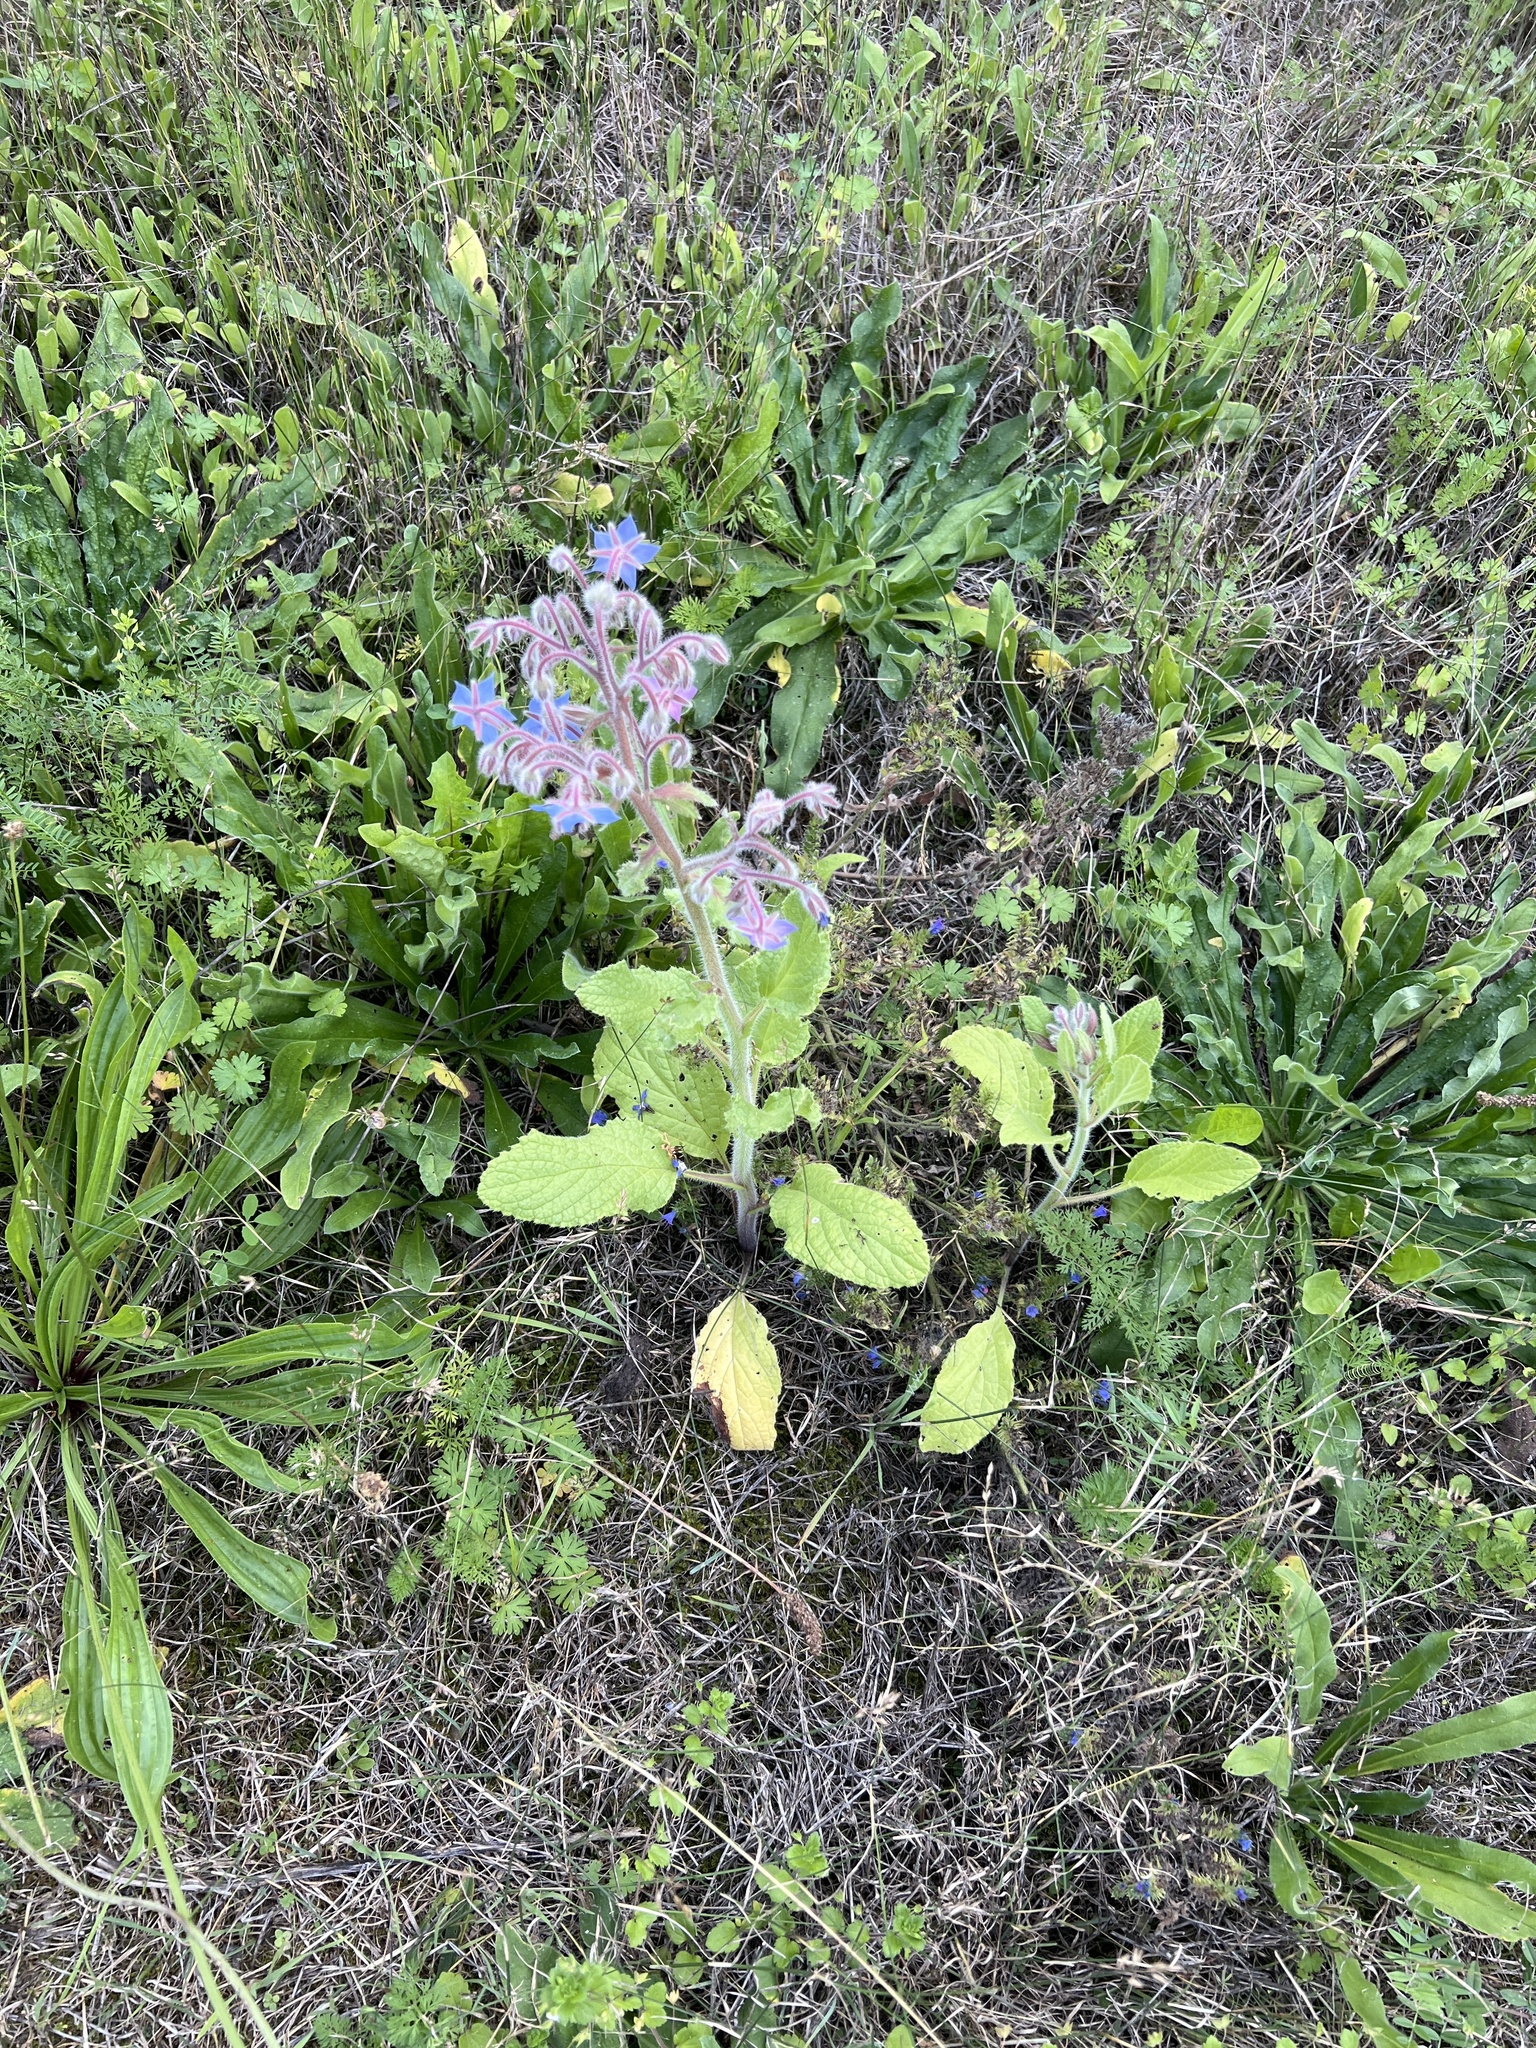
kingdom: Plantae
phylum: Tracheophyta
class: Magnoliopsida
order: Boraginales
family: Boraginaceae
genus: Borago
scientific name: Borago officinalis
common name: Borage
